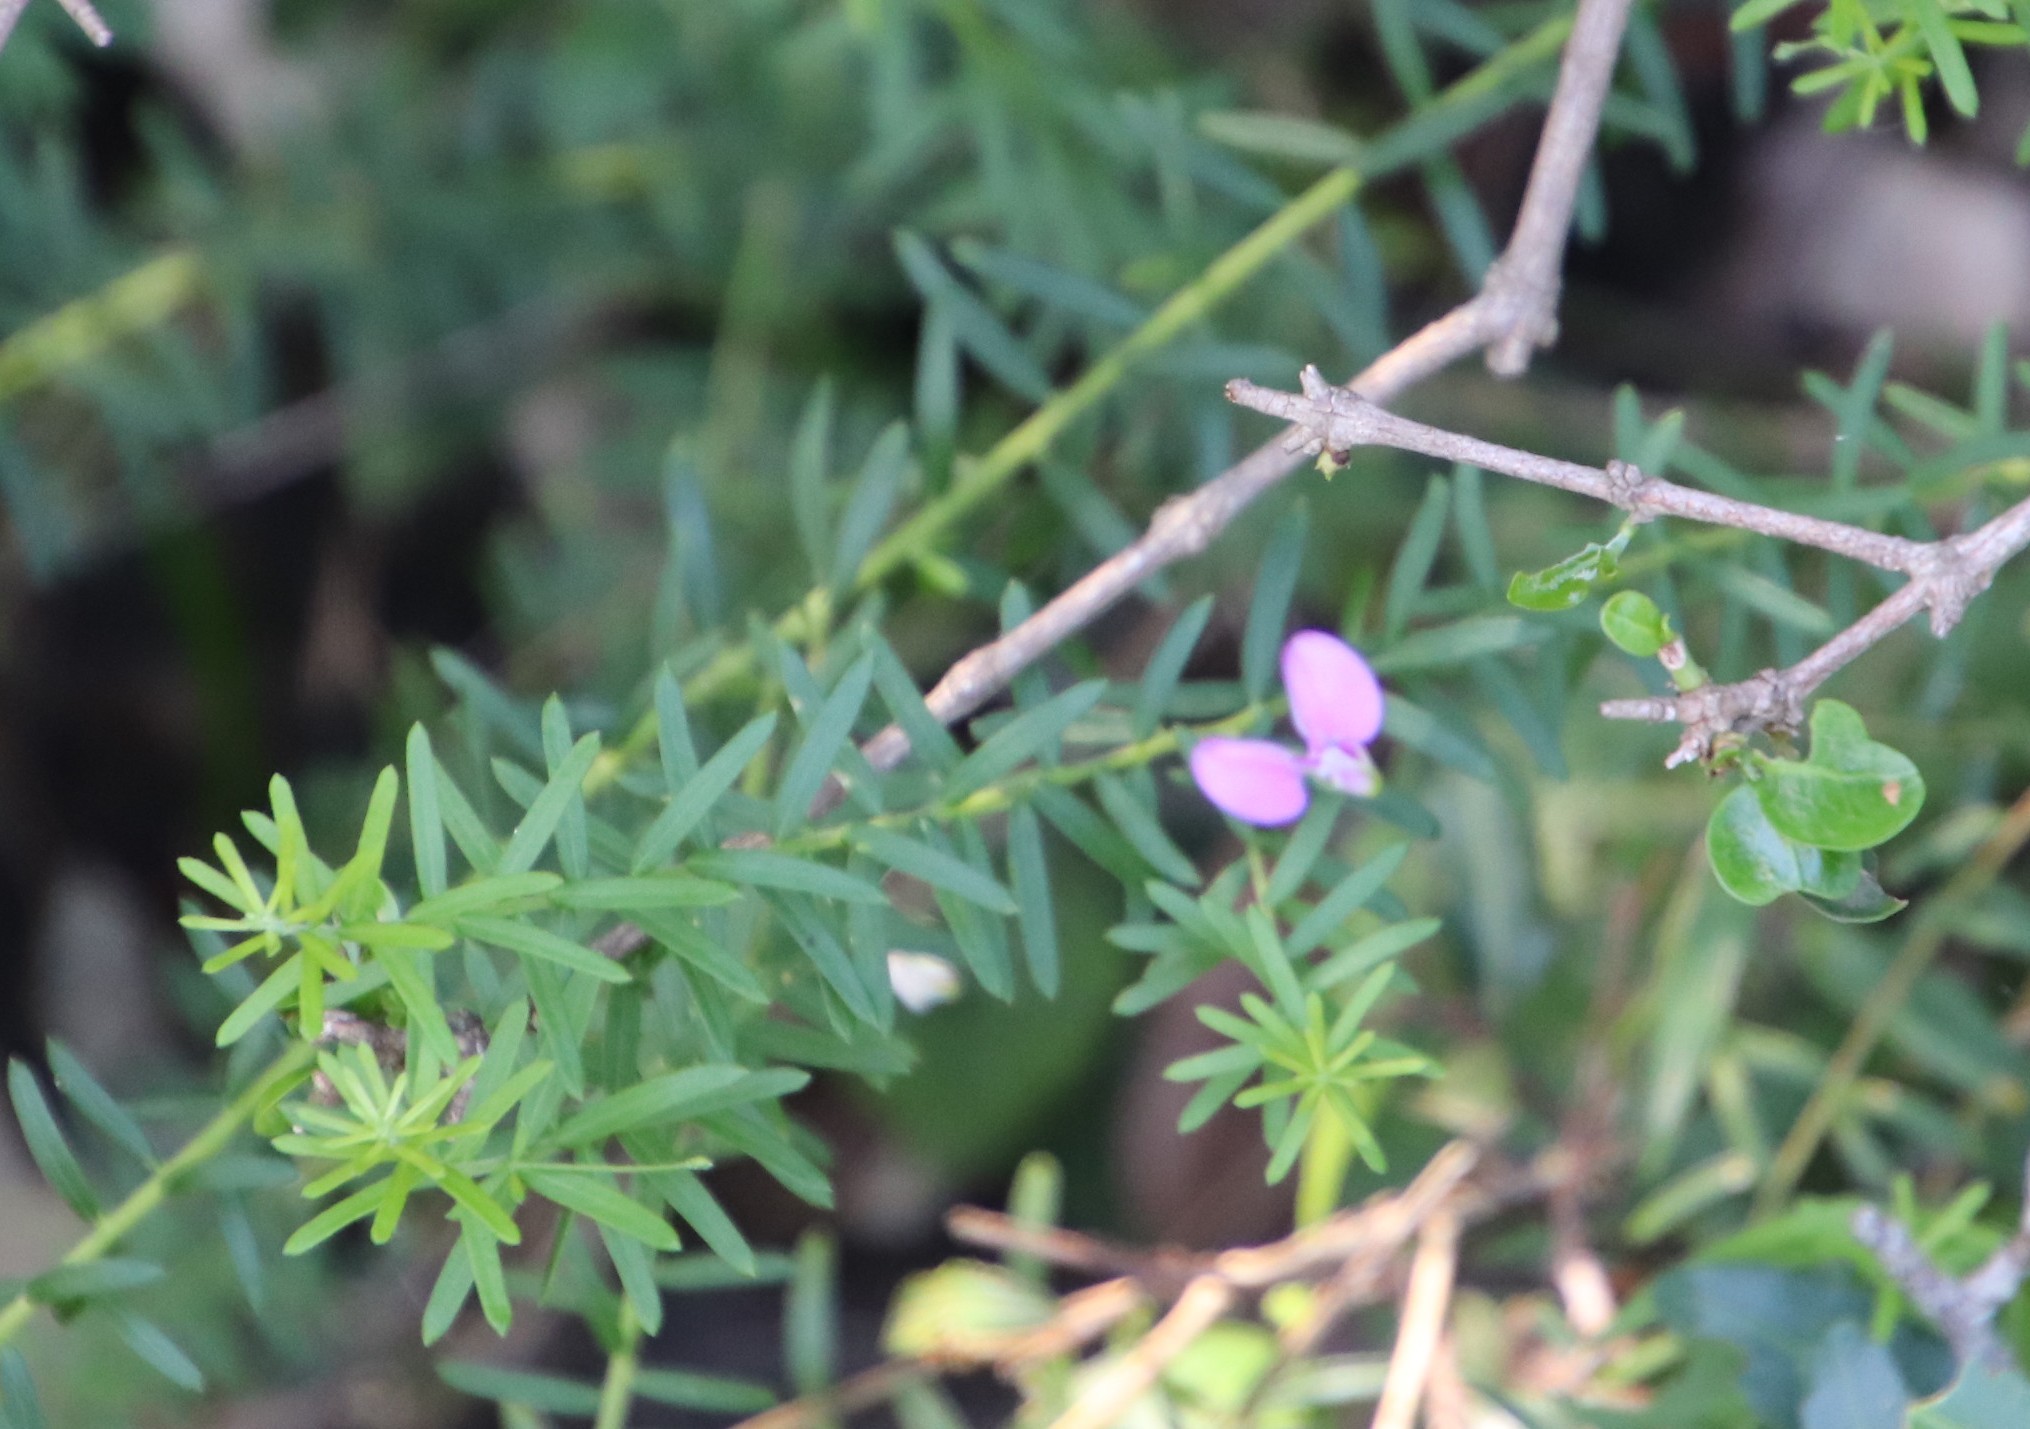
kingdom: Plantae
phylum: Tracheophyta
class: Magnoliopsida
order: Fabales
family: Polygalaceae
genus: Polygala
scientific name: Polygala gazensis
